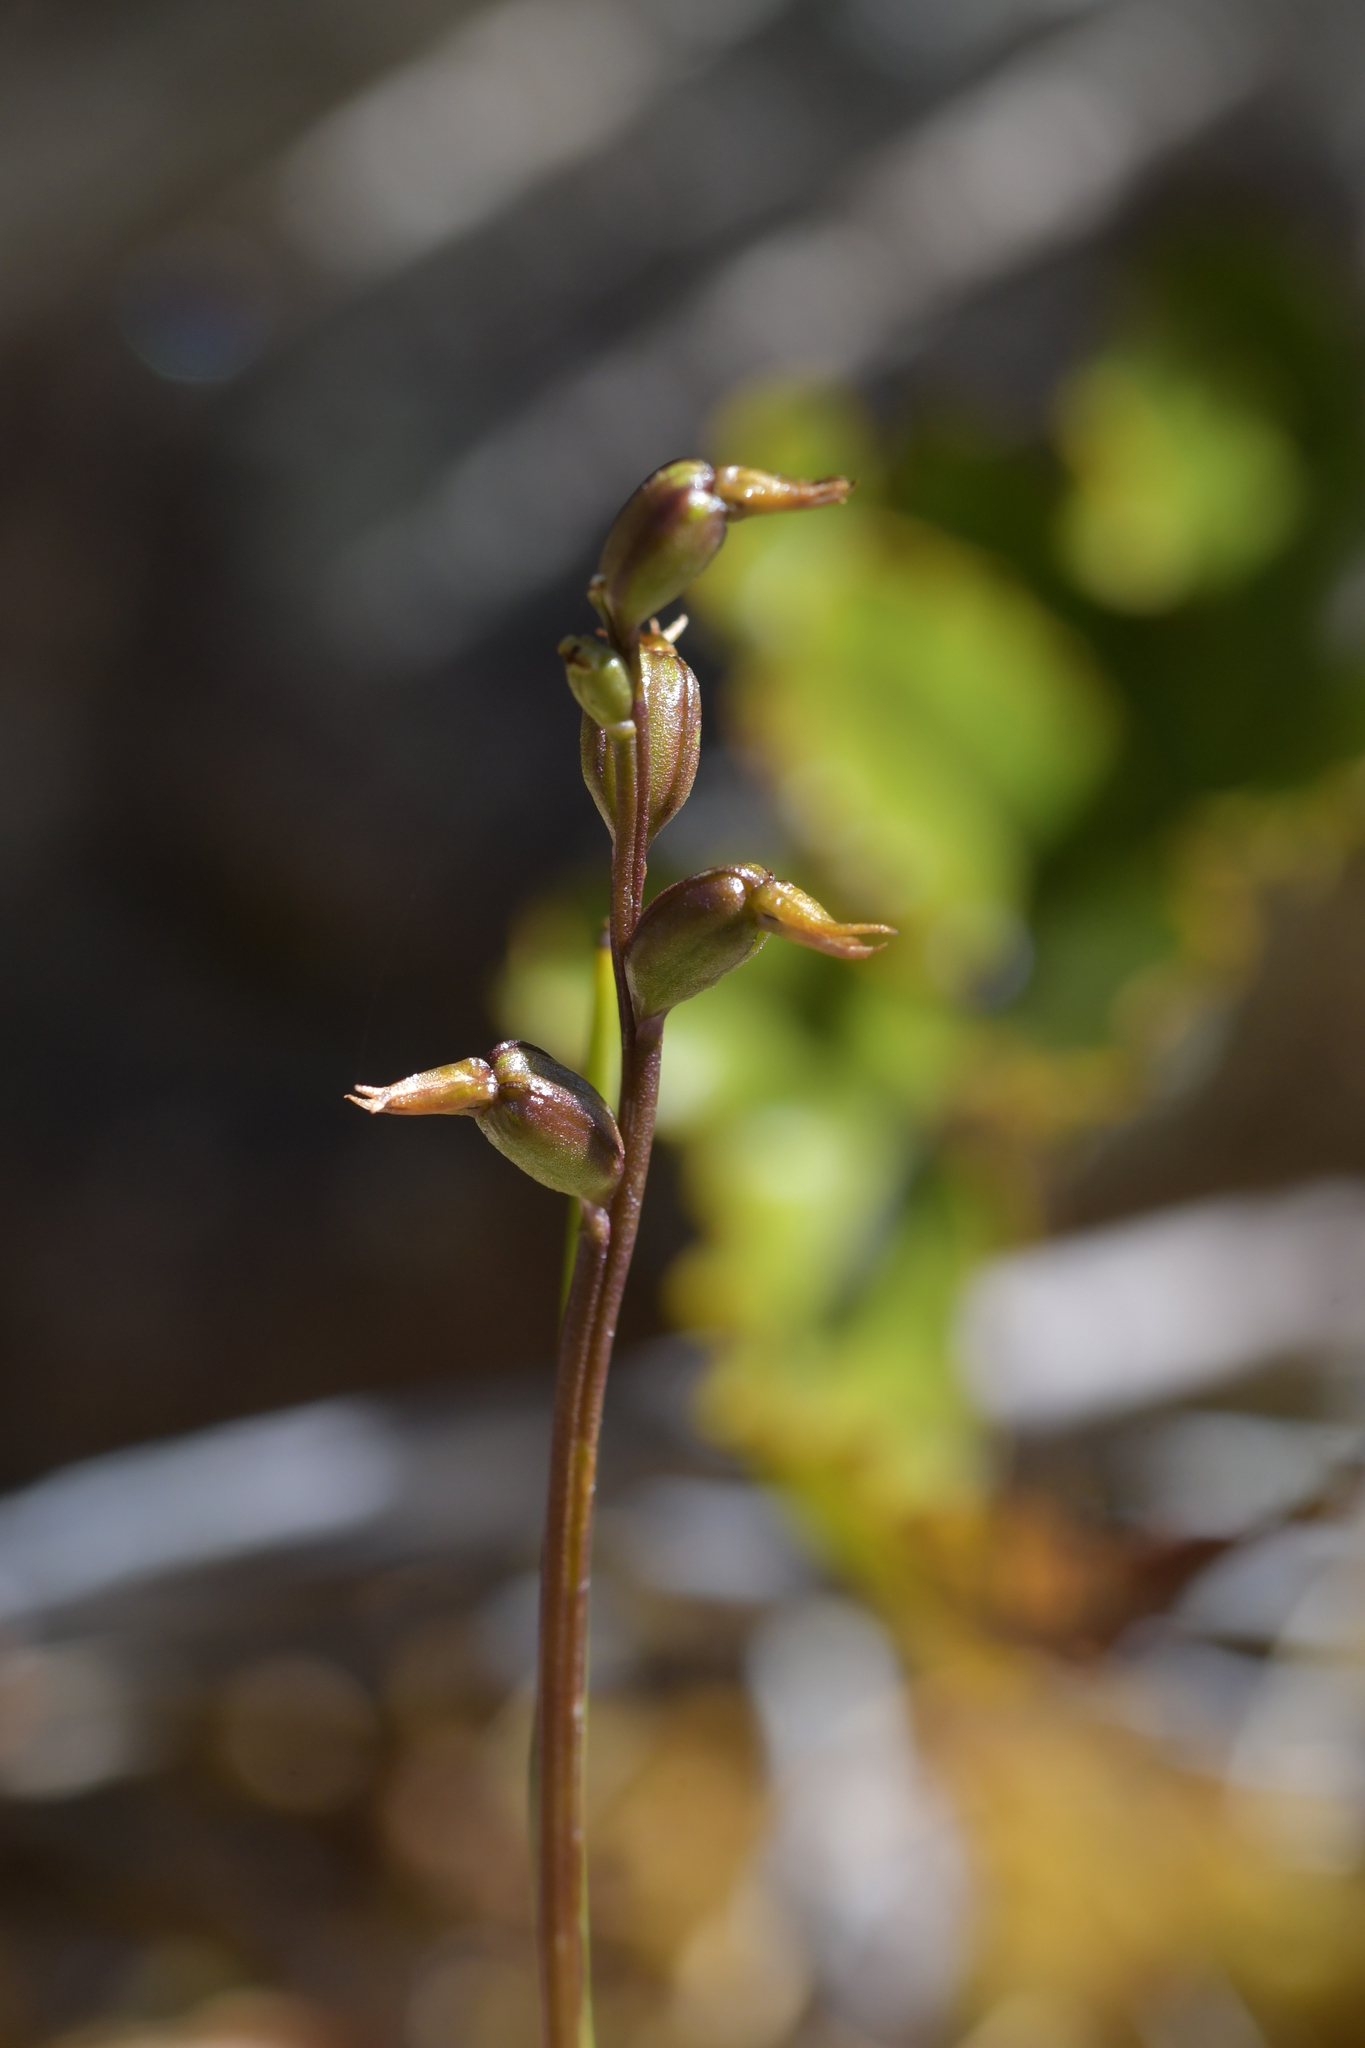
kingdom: Plantae
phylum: Tracheophyta
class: Liliopsida
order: Asparagales
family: Orchidaceae
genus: Prasophyllum
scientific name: Prasophyllum colensoi
